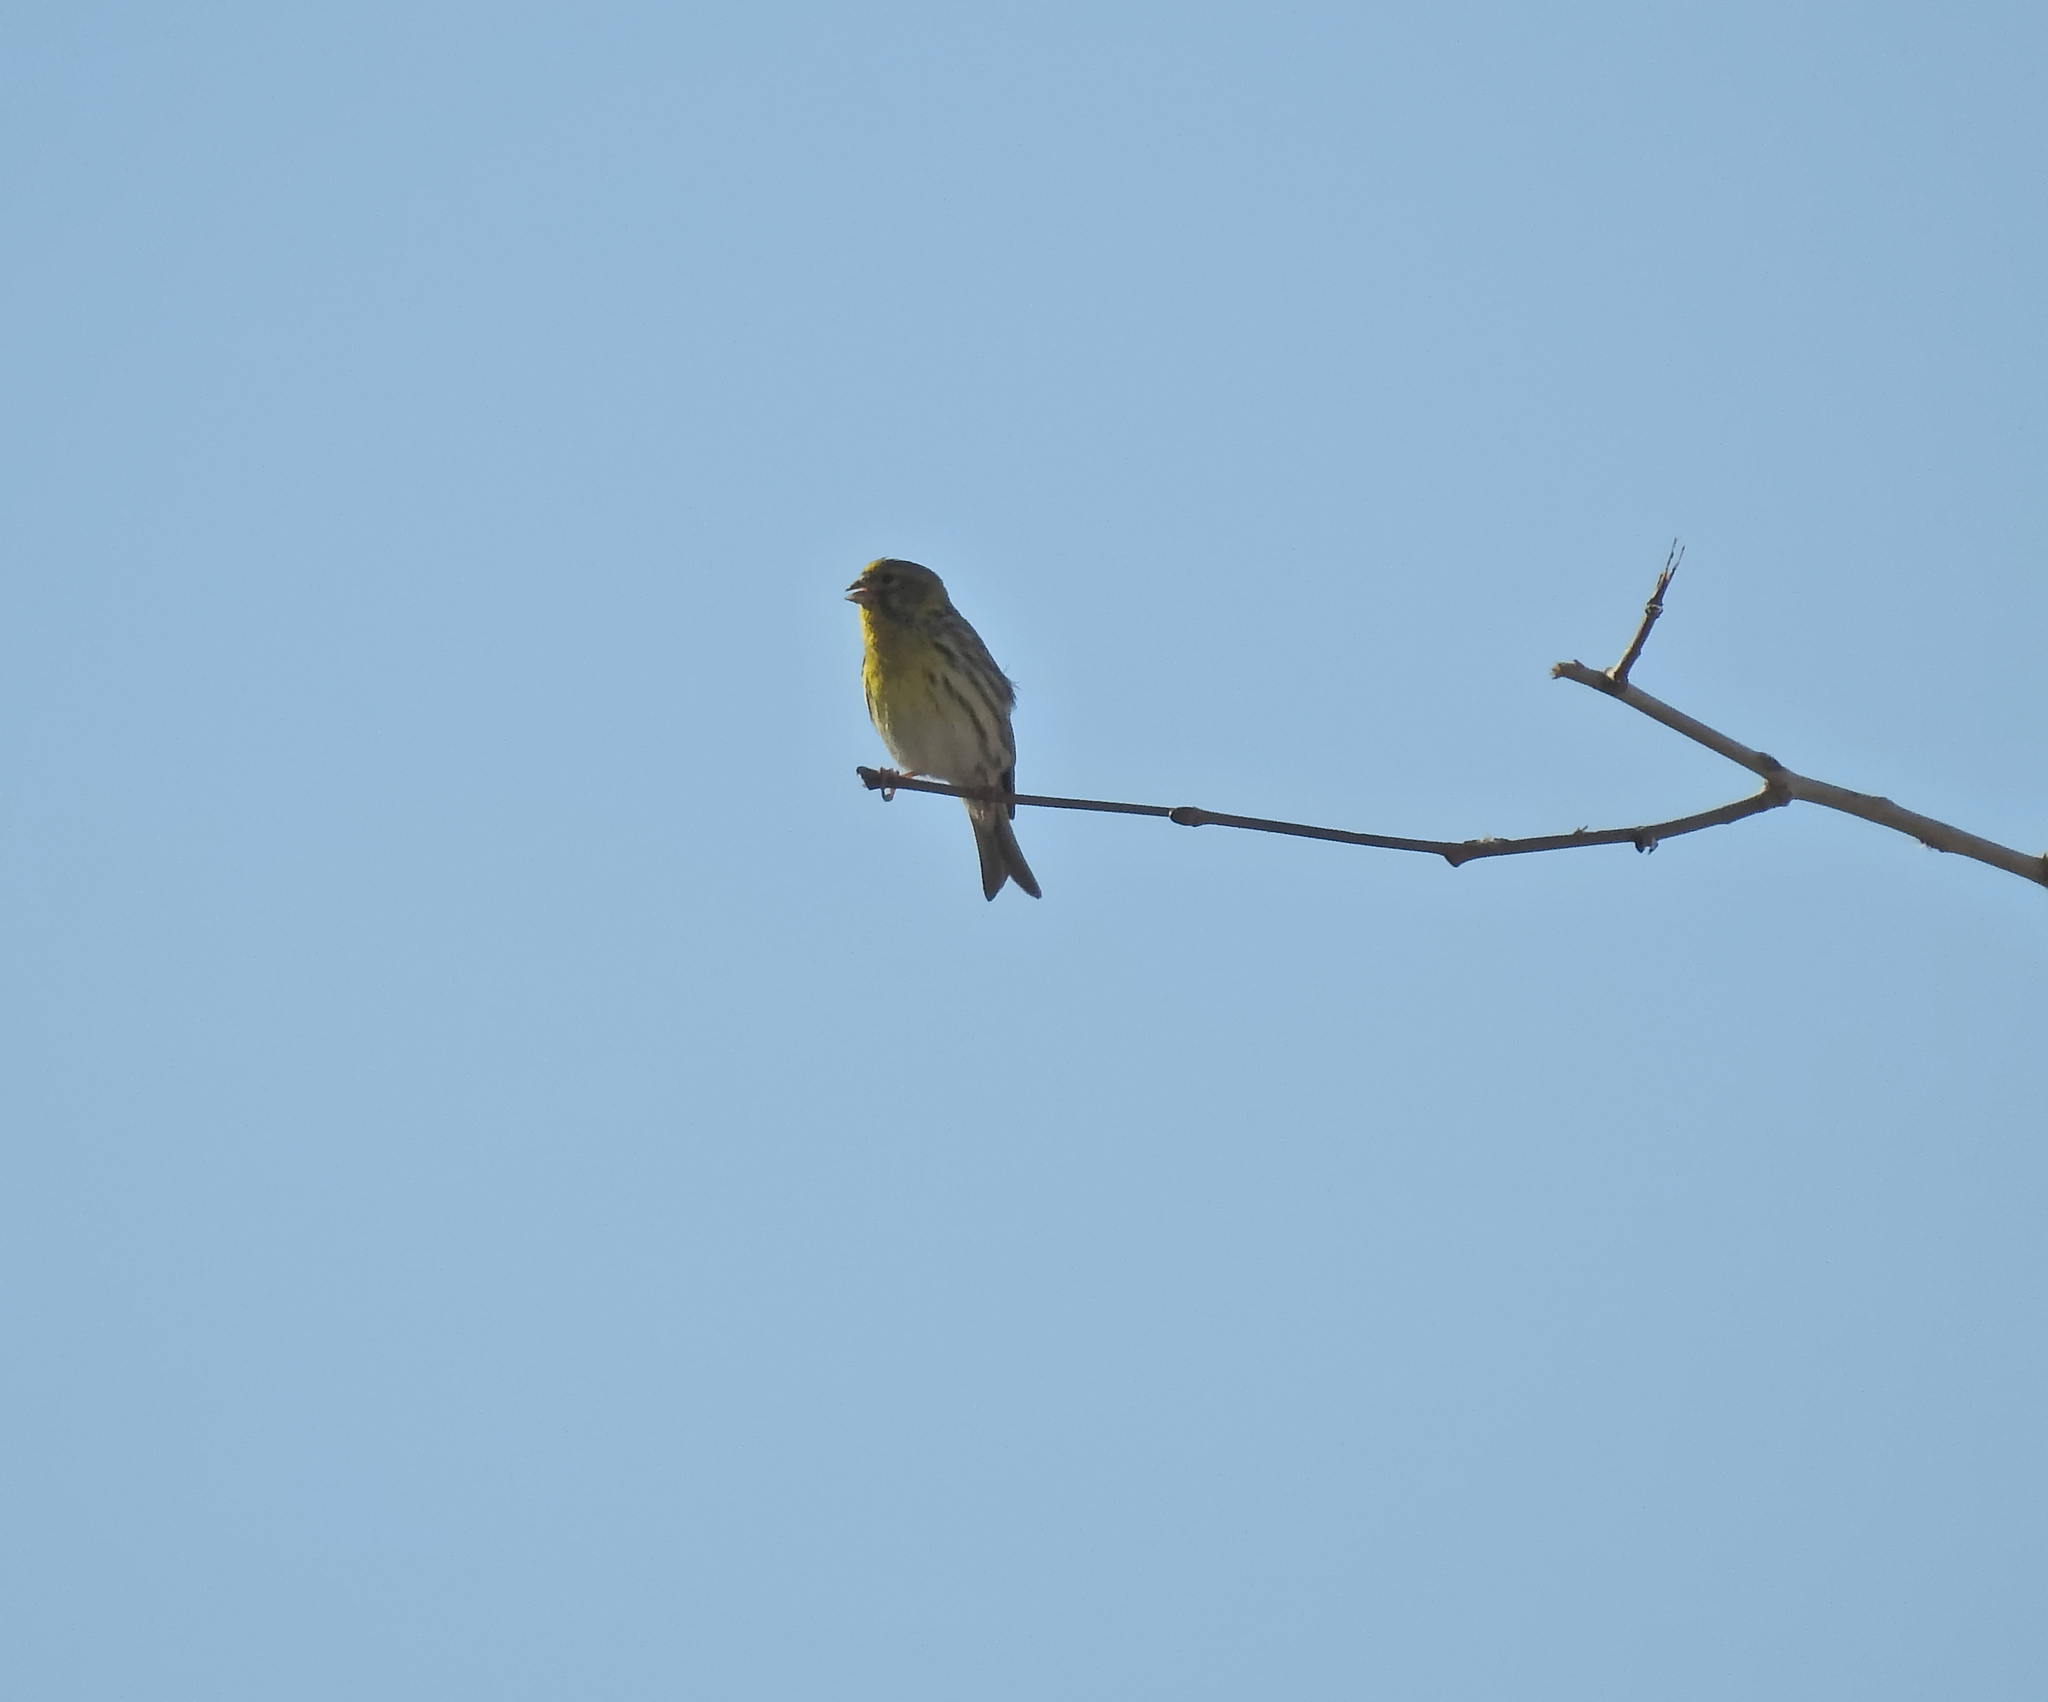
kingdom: Animalia
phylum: Chordata
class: Aves
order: Passeriformes
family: Fringillidae
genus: Serinus
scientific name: Serinus serinus
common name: European serin
